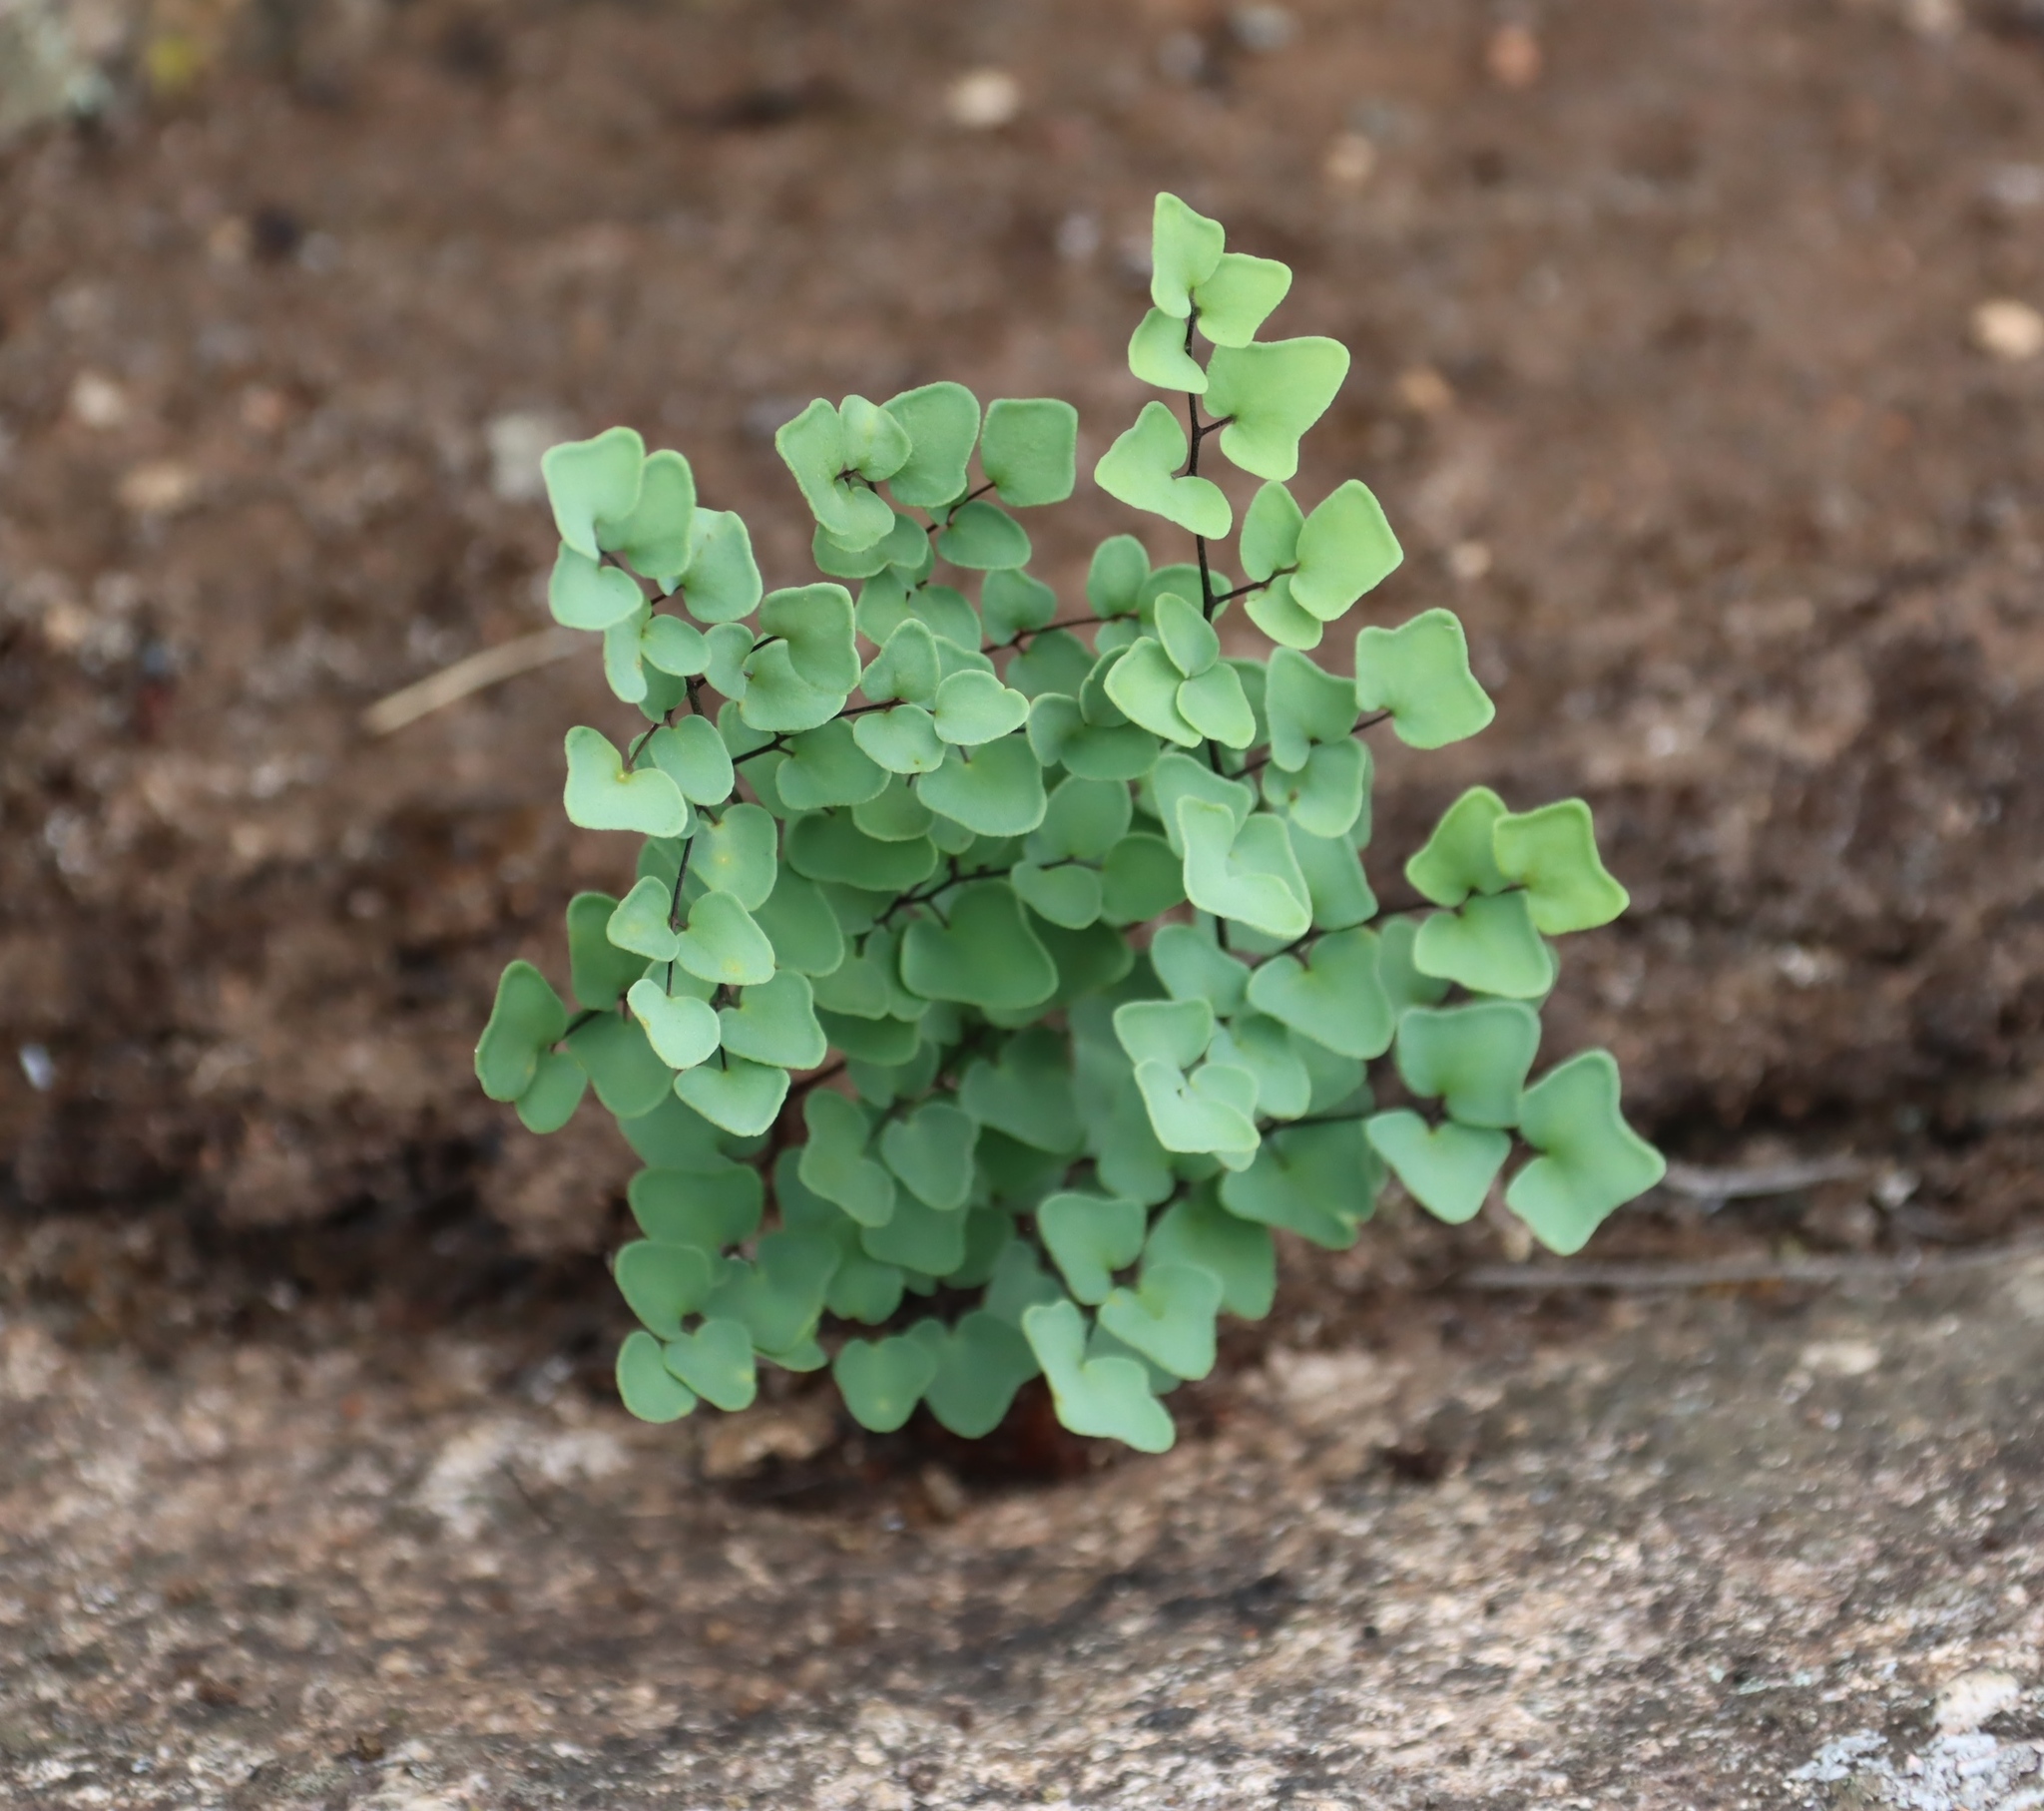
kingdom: Plantae
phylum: Tracheophyta
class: Polypodiopsida
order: Polypodiales
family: Pteridaceae
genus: Pellaea
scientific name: Pellaea calomelanos
